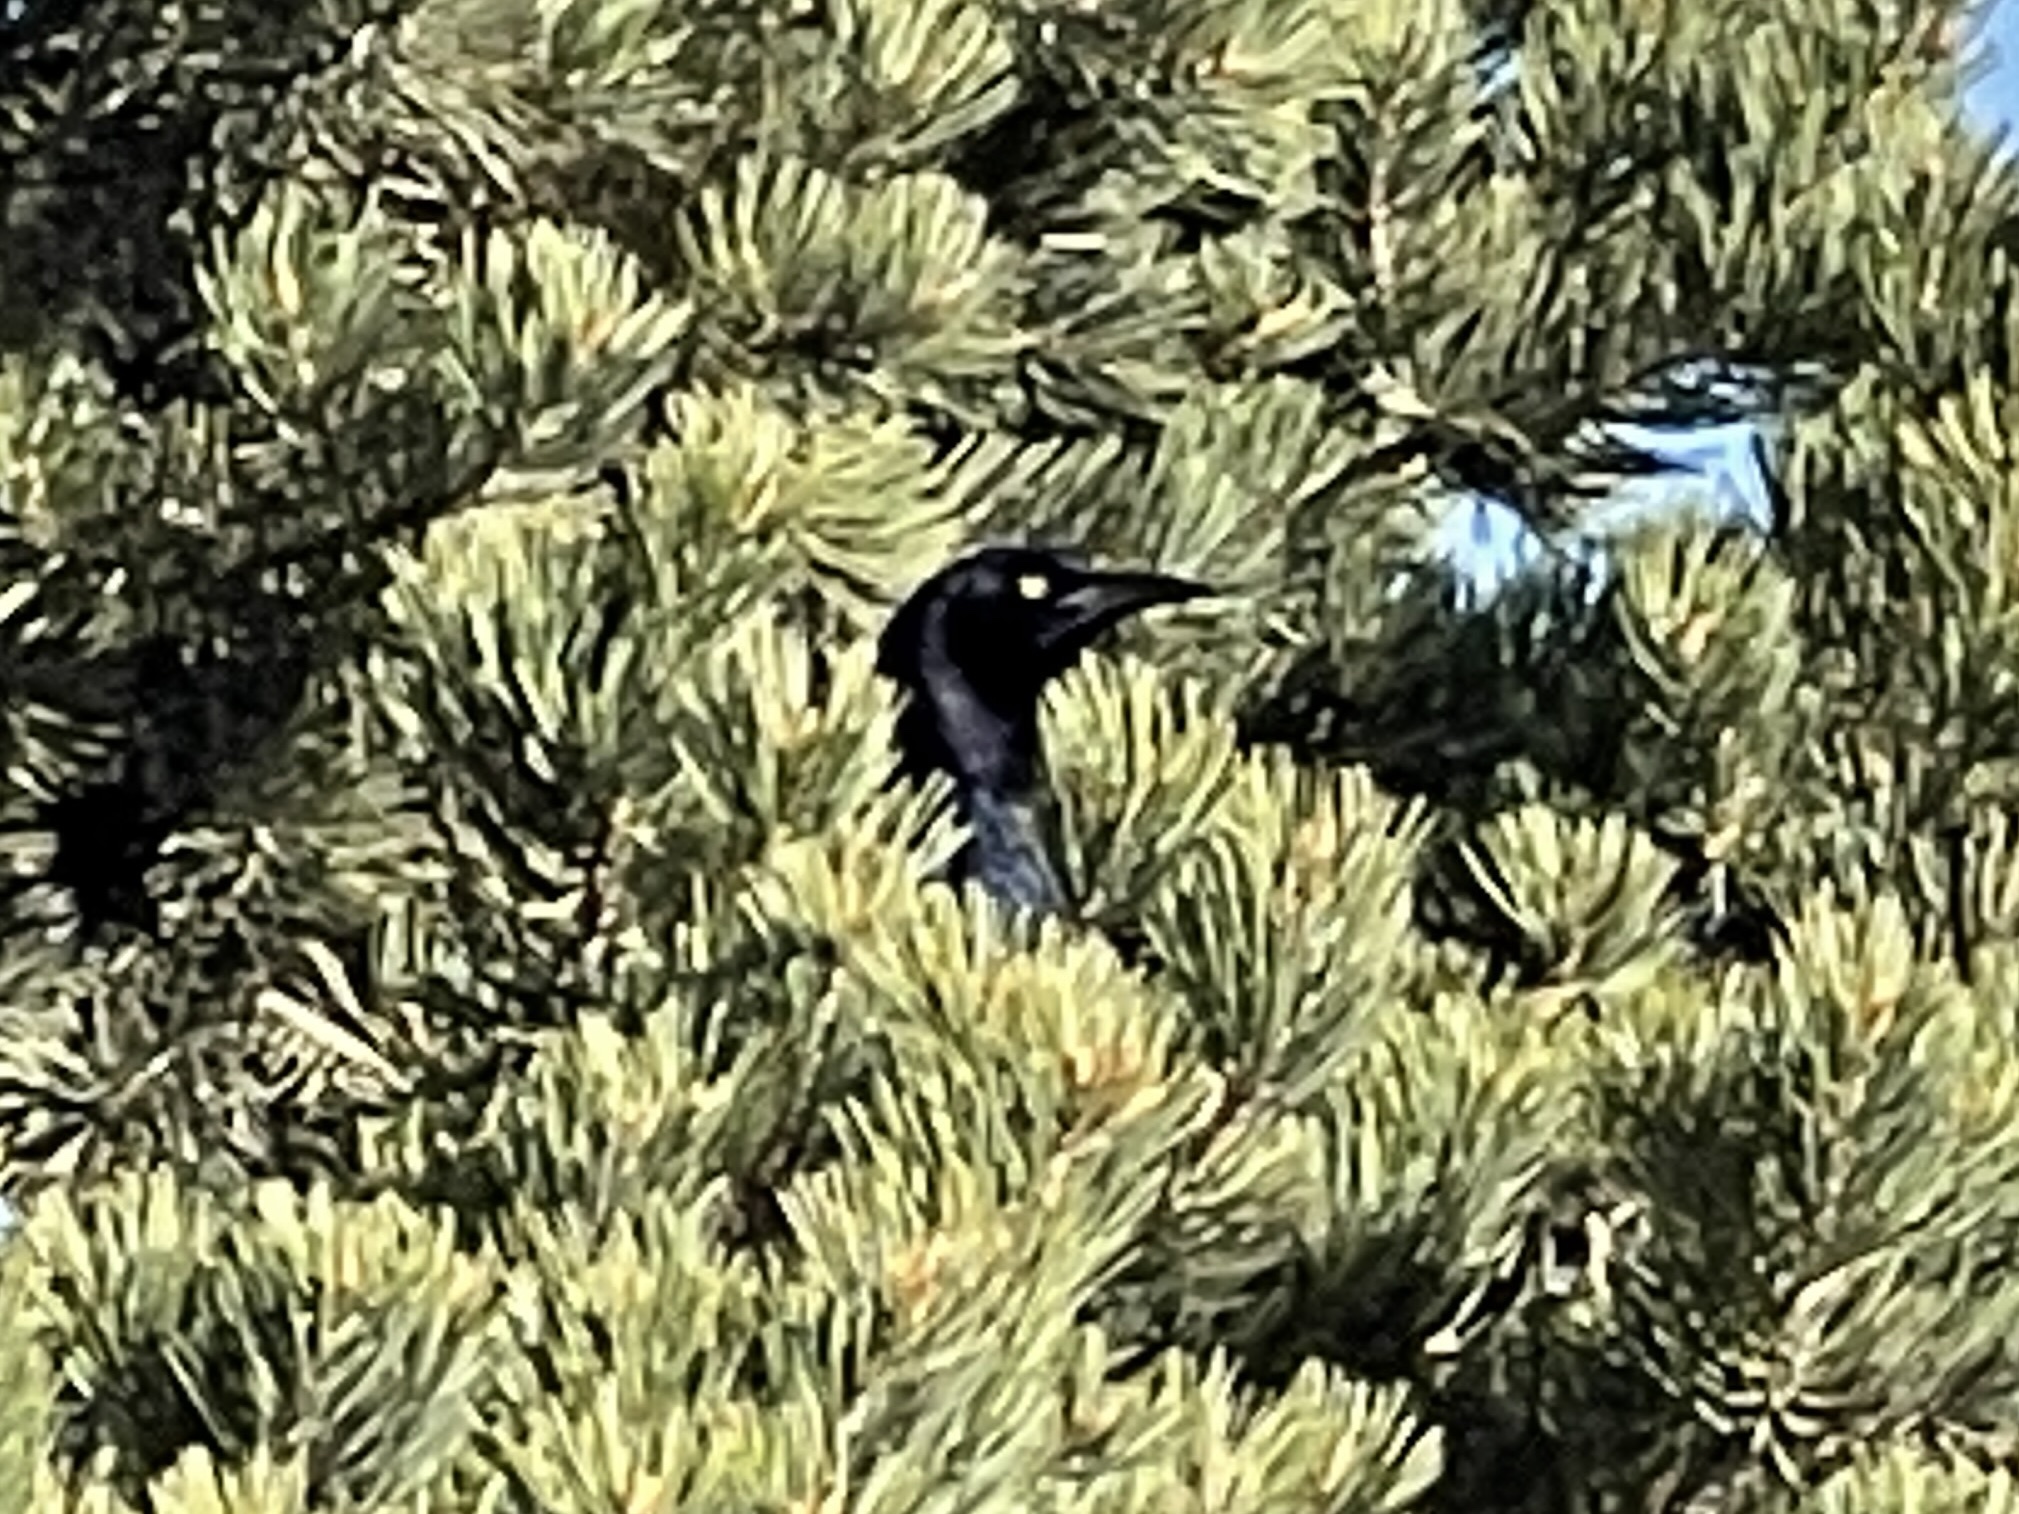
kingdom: Animalia
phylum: Chordata
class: Aves
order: Passeriformes
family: Icteridae
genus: Quiscalus
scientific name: Quiscalus mexicanus
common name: Great-tailed grackle
